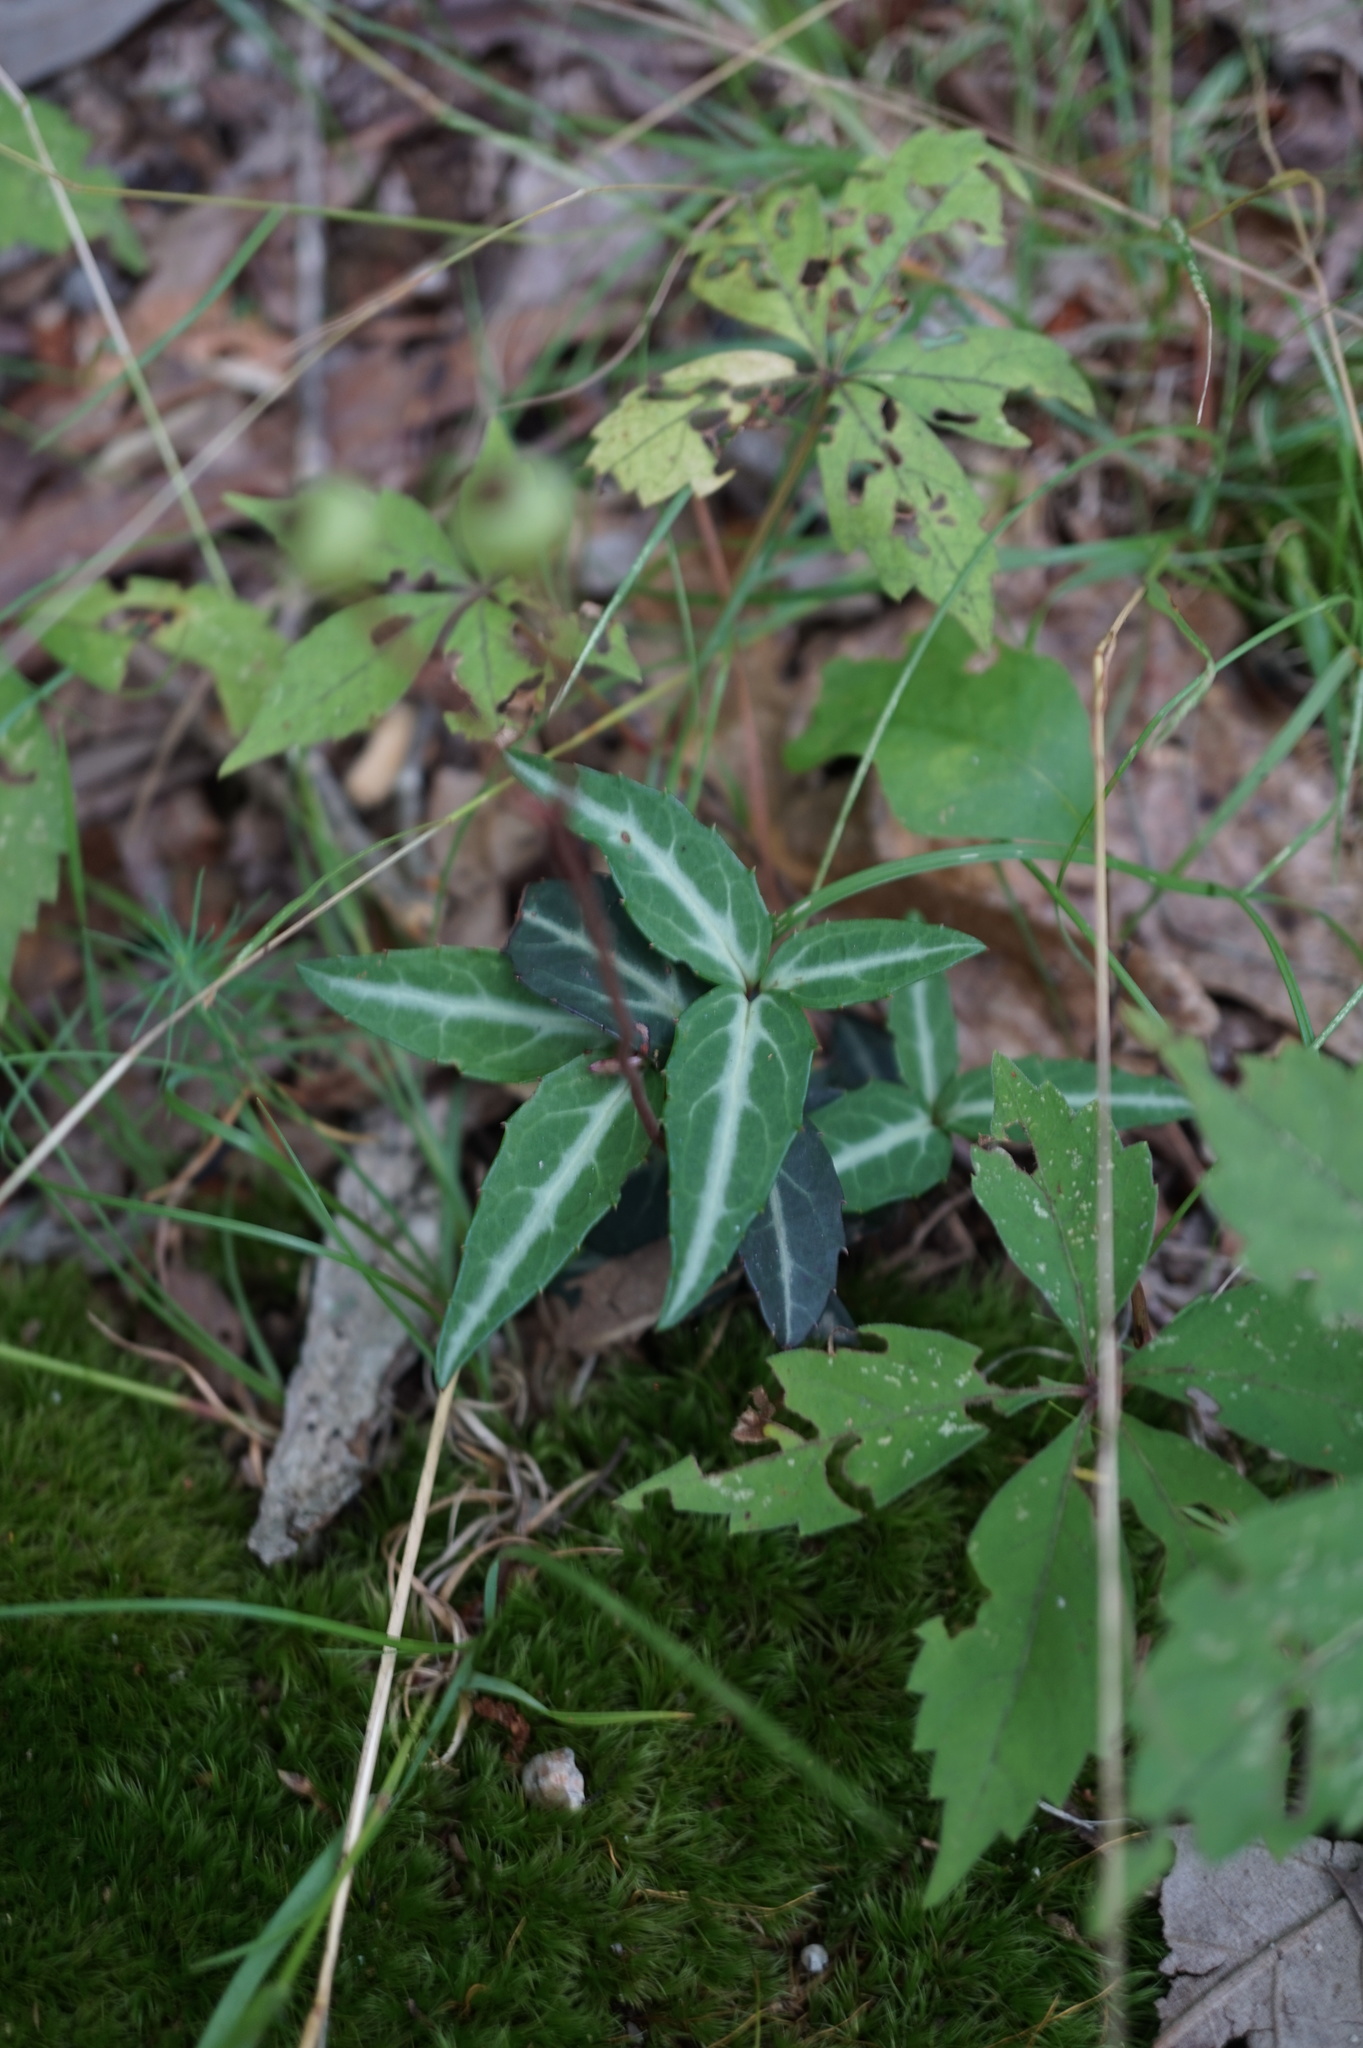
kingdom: Plantae
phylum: Tracheophyta
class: Magnoliopsida
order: Ericales
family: Ericaceae
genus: Chimaphila
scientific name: Chimaphila maculata
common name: Spotted pipsissewa
